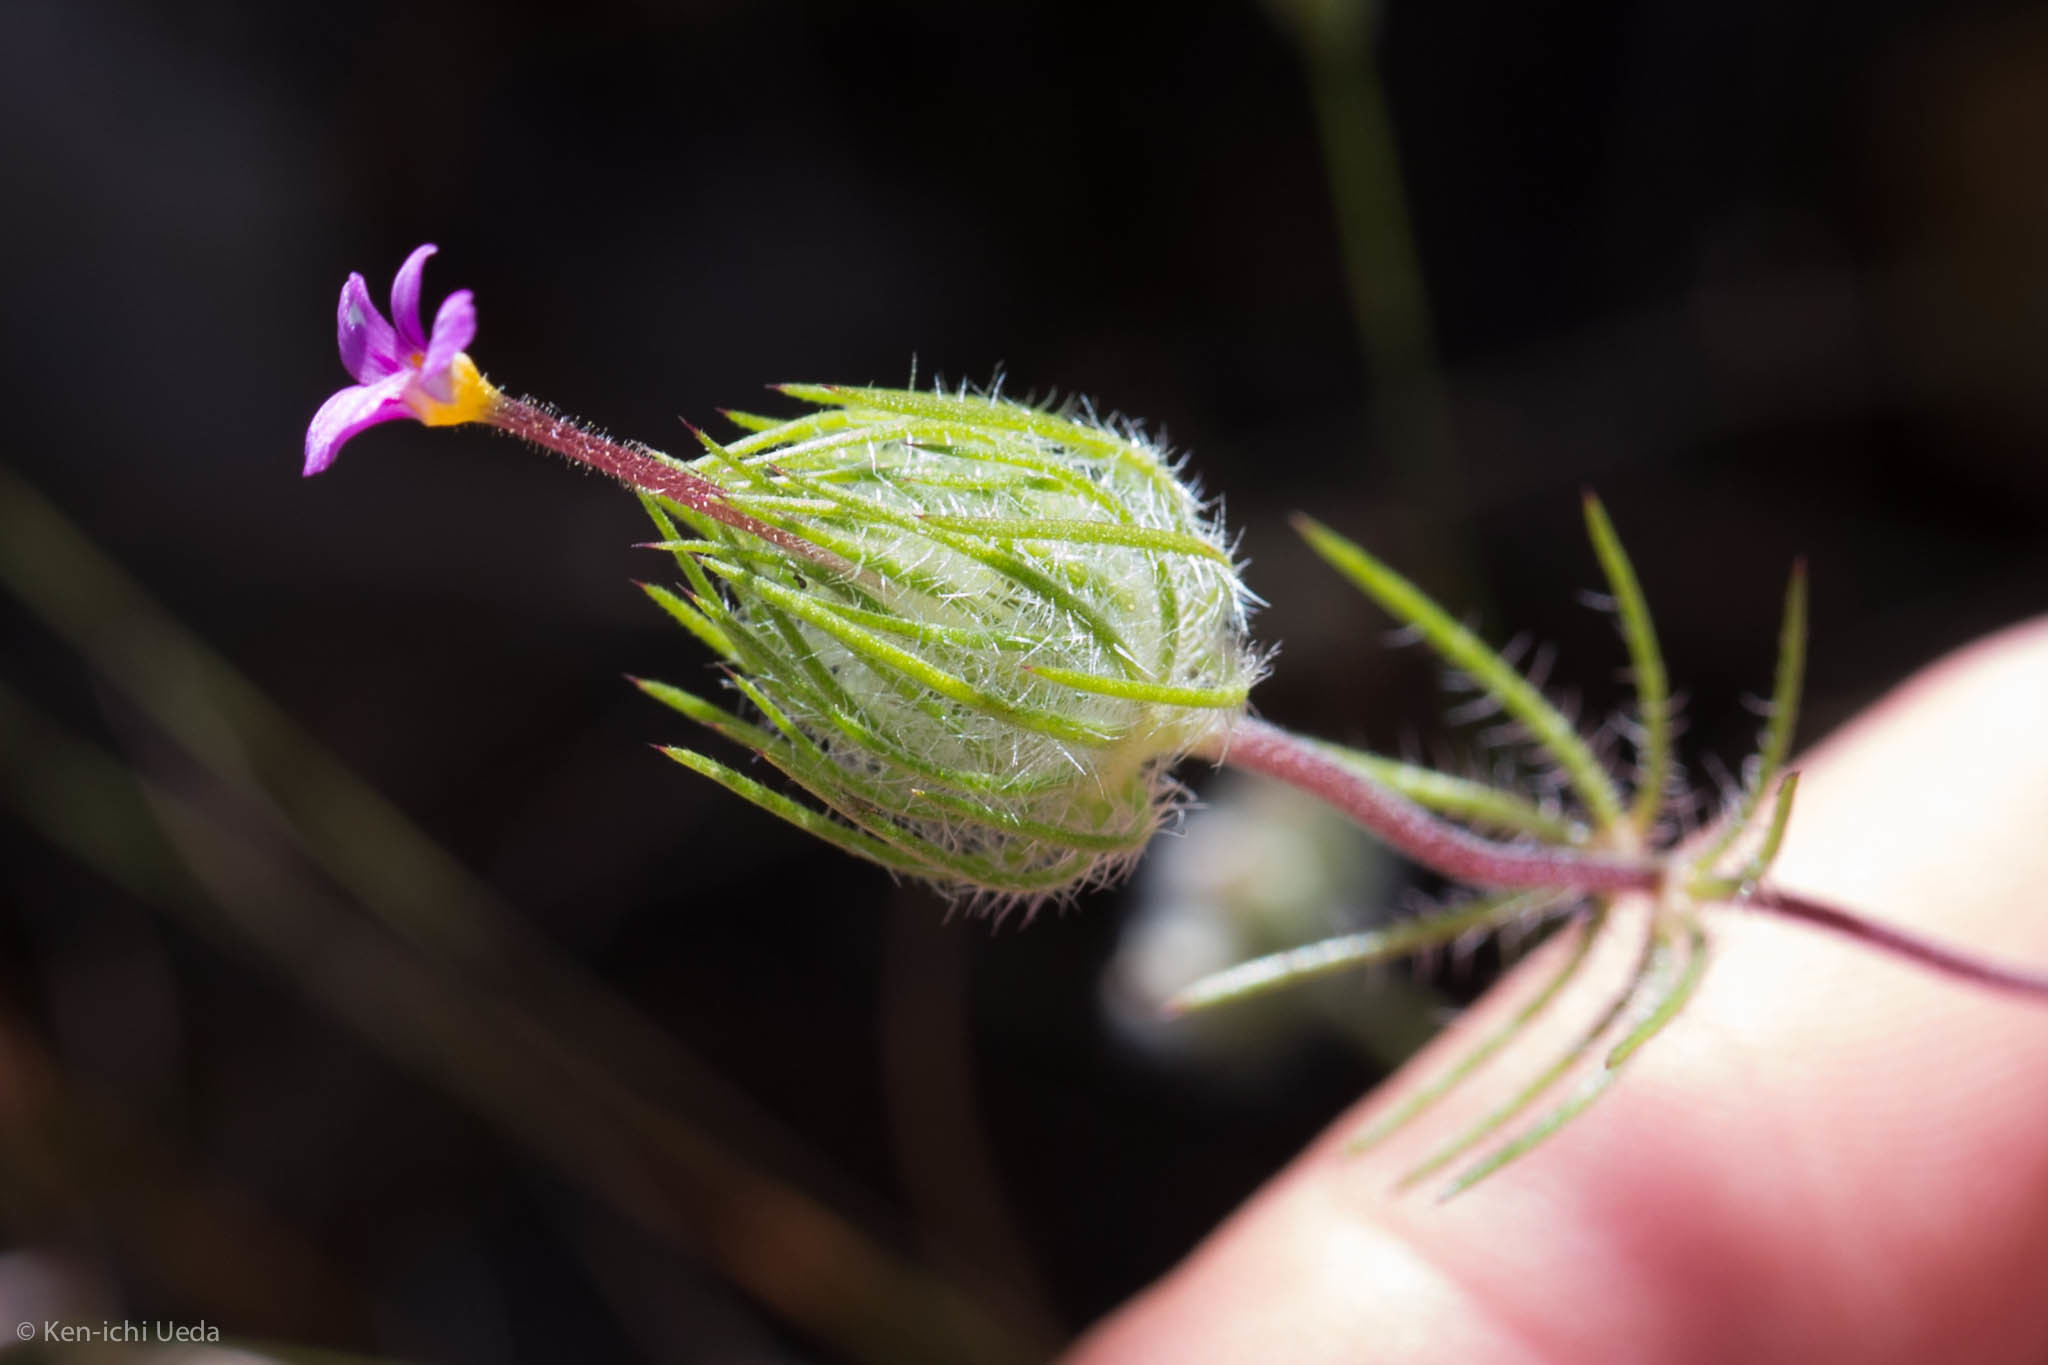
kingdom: Plantae
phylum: Tracheophyta
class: Magnoliopsida
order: Ericales
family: Polemoniaceae
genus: Leptosiphon
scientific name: Leptosiphon ciliatus
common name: Whiskerbrush
